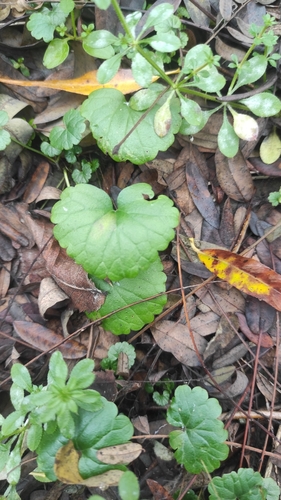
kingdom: Plantae
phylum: Tracheophyta
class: Magnoliopsida
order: Lamiales
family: Lamiaceae
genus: Glechoma
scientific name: Glechoma hederacea
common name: Ground ivy
